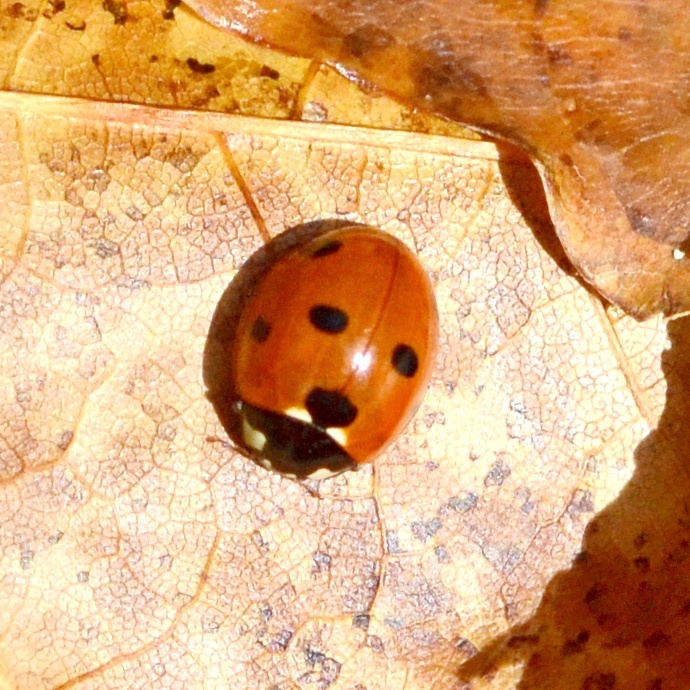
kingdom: Animalia
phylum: Arthropoda
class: Insecta
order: Coleoptera
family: Coccinellidae
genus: Coccinella
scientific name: Coccinella septempunctata
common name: Sevenspotted lady beetle
